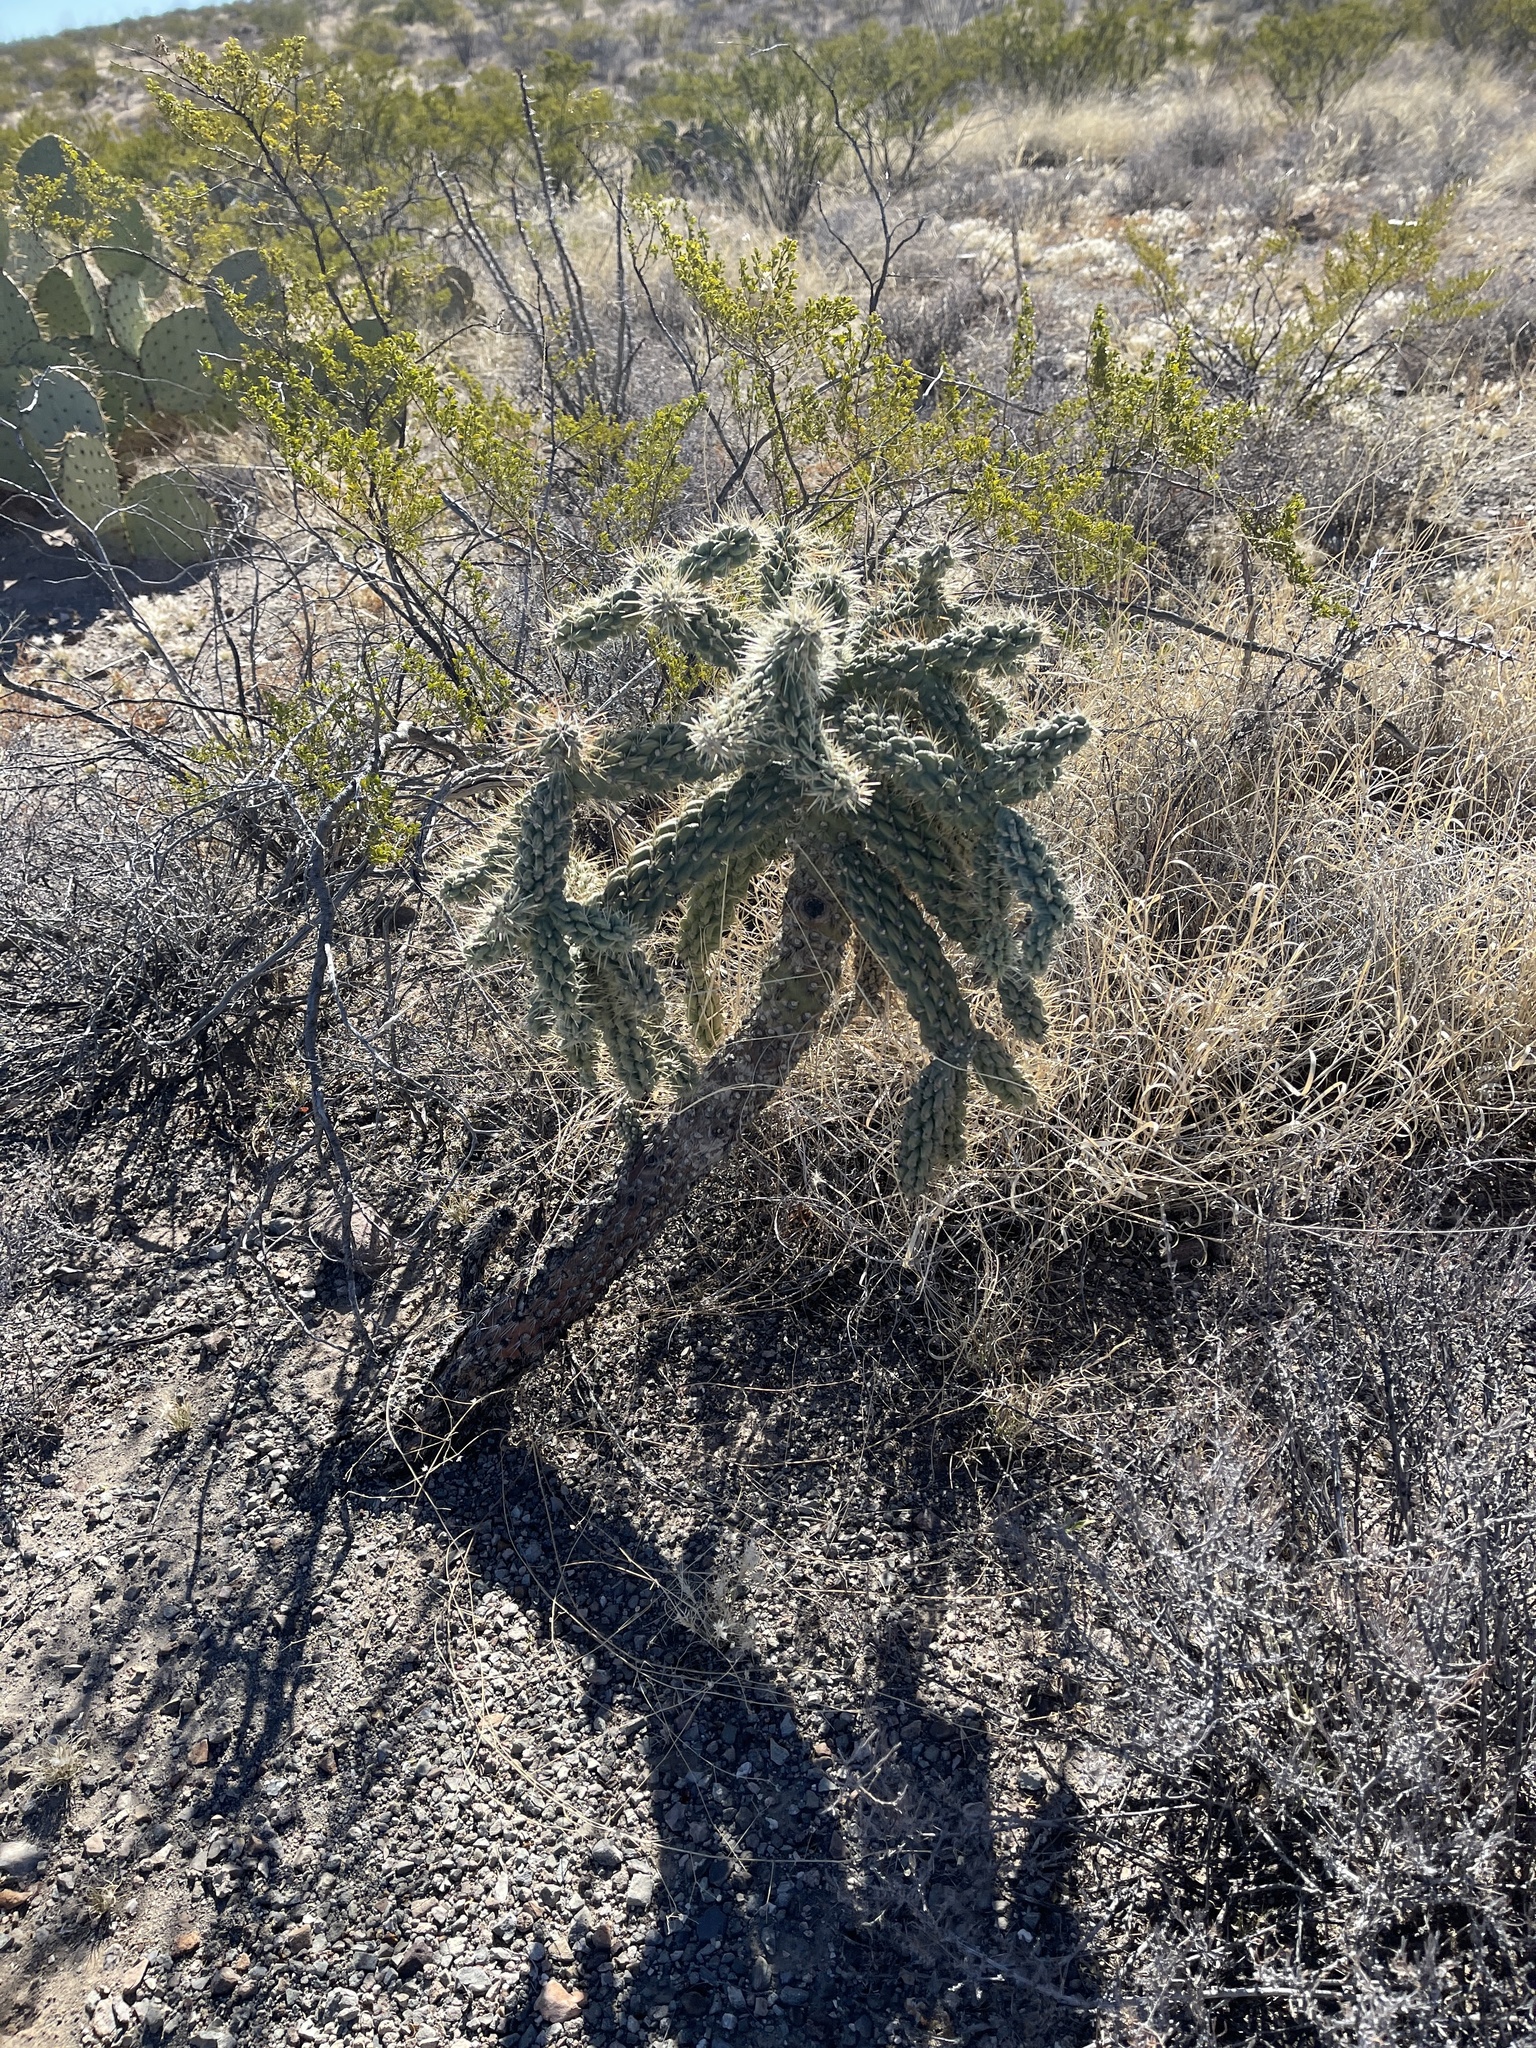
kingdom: Plantae
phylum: Tracheophyta
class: Magnoliopsida
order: Caryophyllales
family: Cactaceae
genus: Cylindropuntia
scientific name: Cylindropuntia fulgida
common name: Jumping cholla
